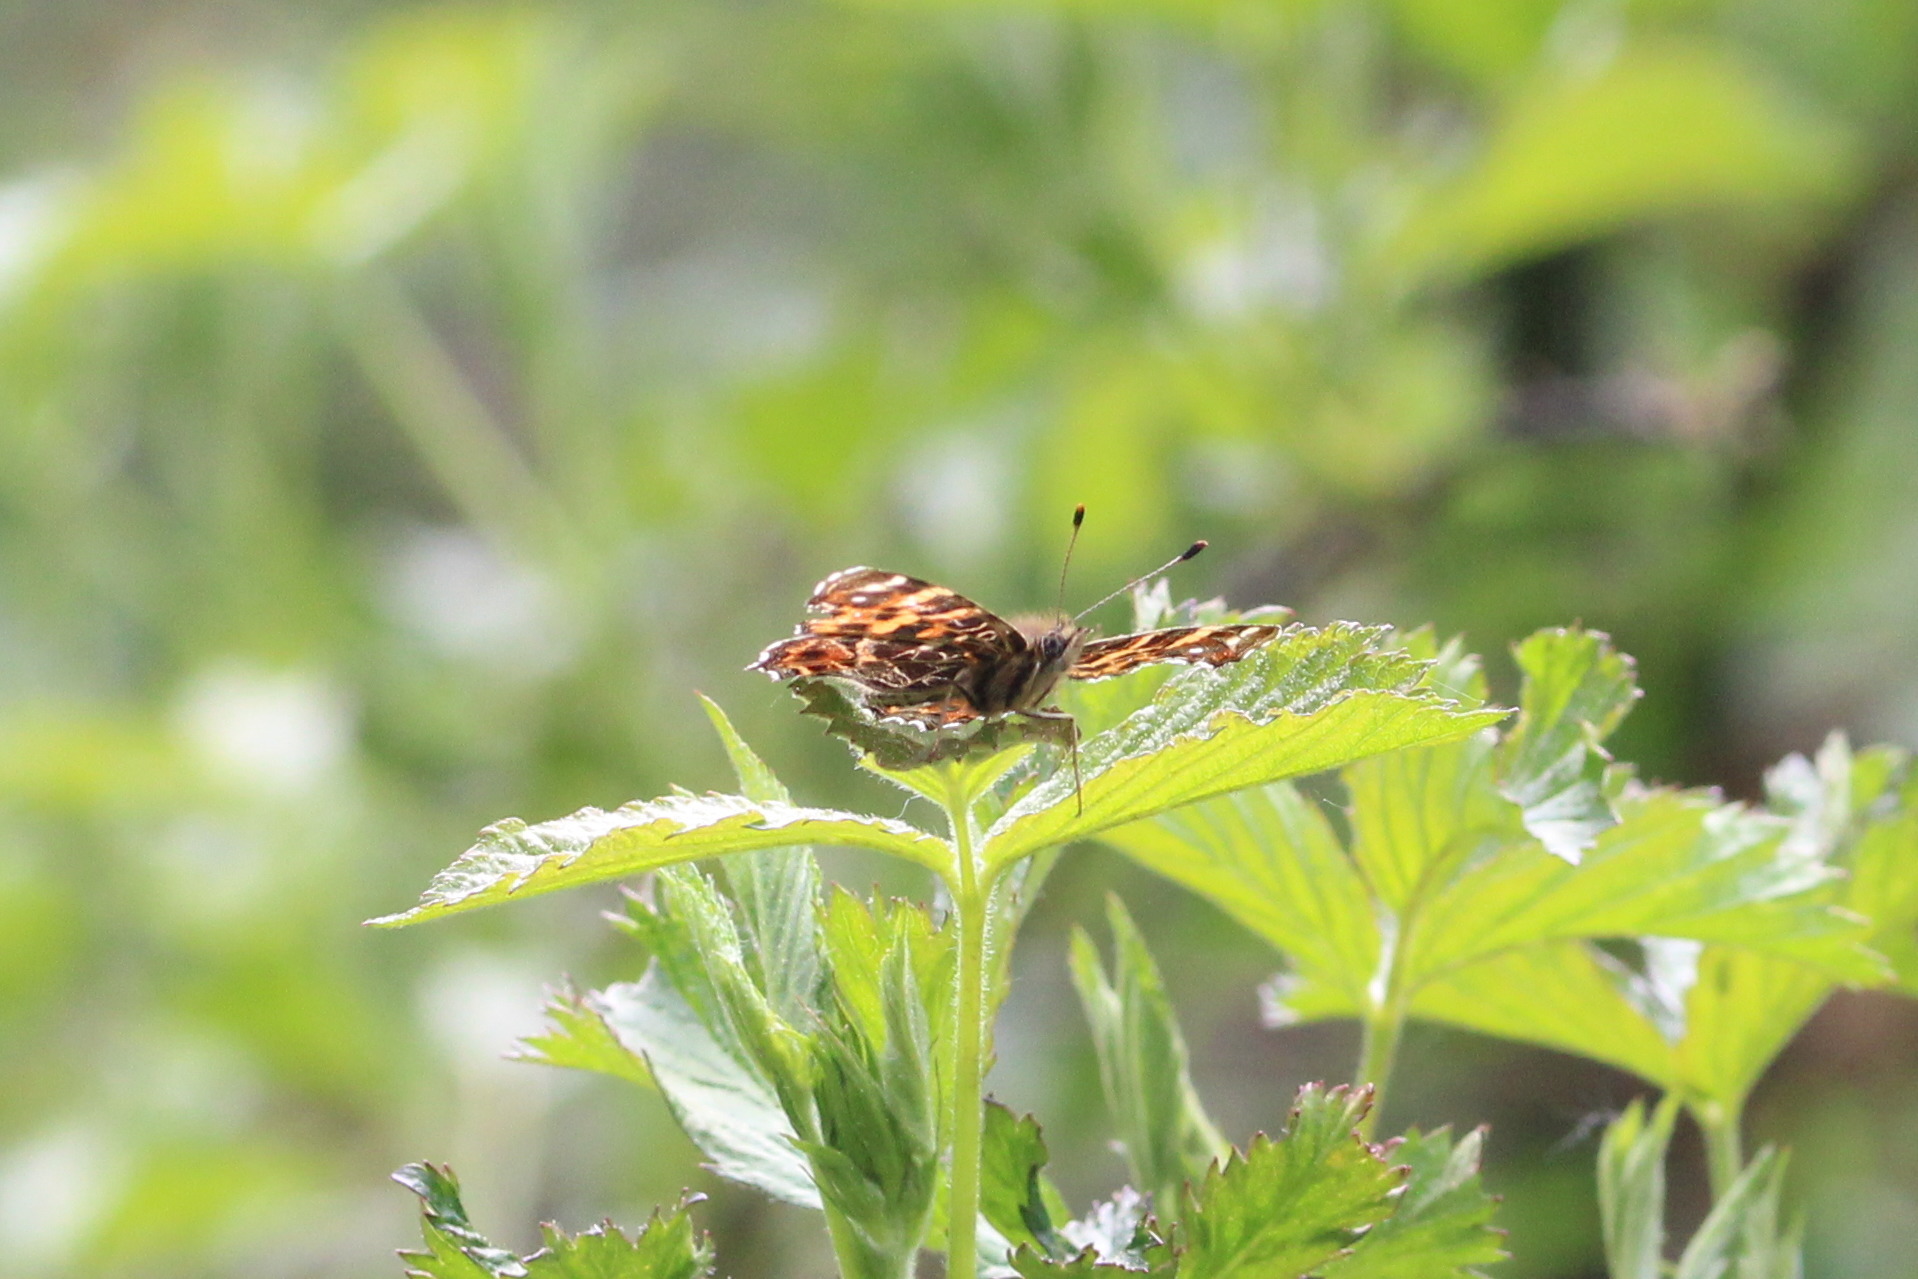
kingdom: Animalia
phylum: Arthropoda
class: Insecta
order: Lepidoptera
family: Nymphalidae
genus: Araschnia
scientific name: Araschnia levana
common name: Map butterfly
